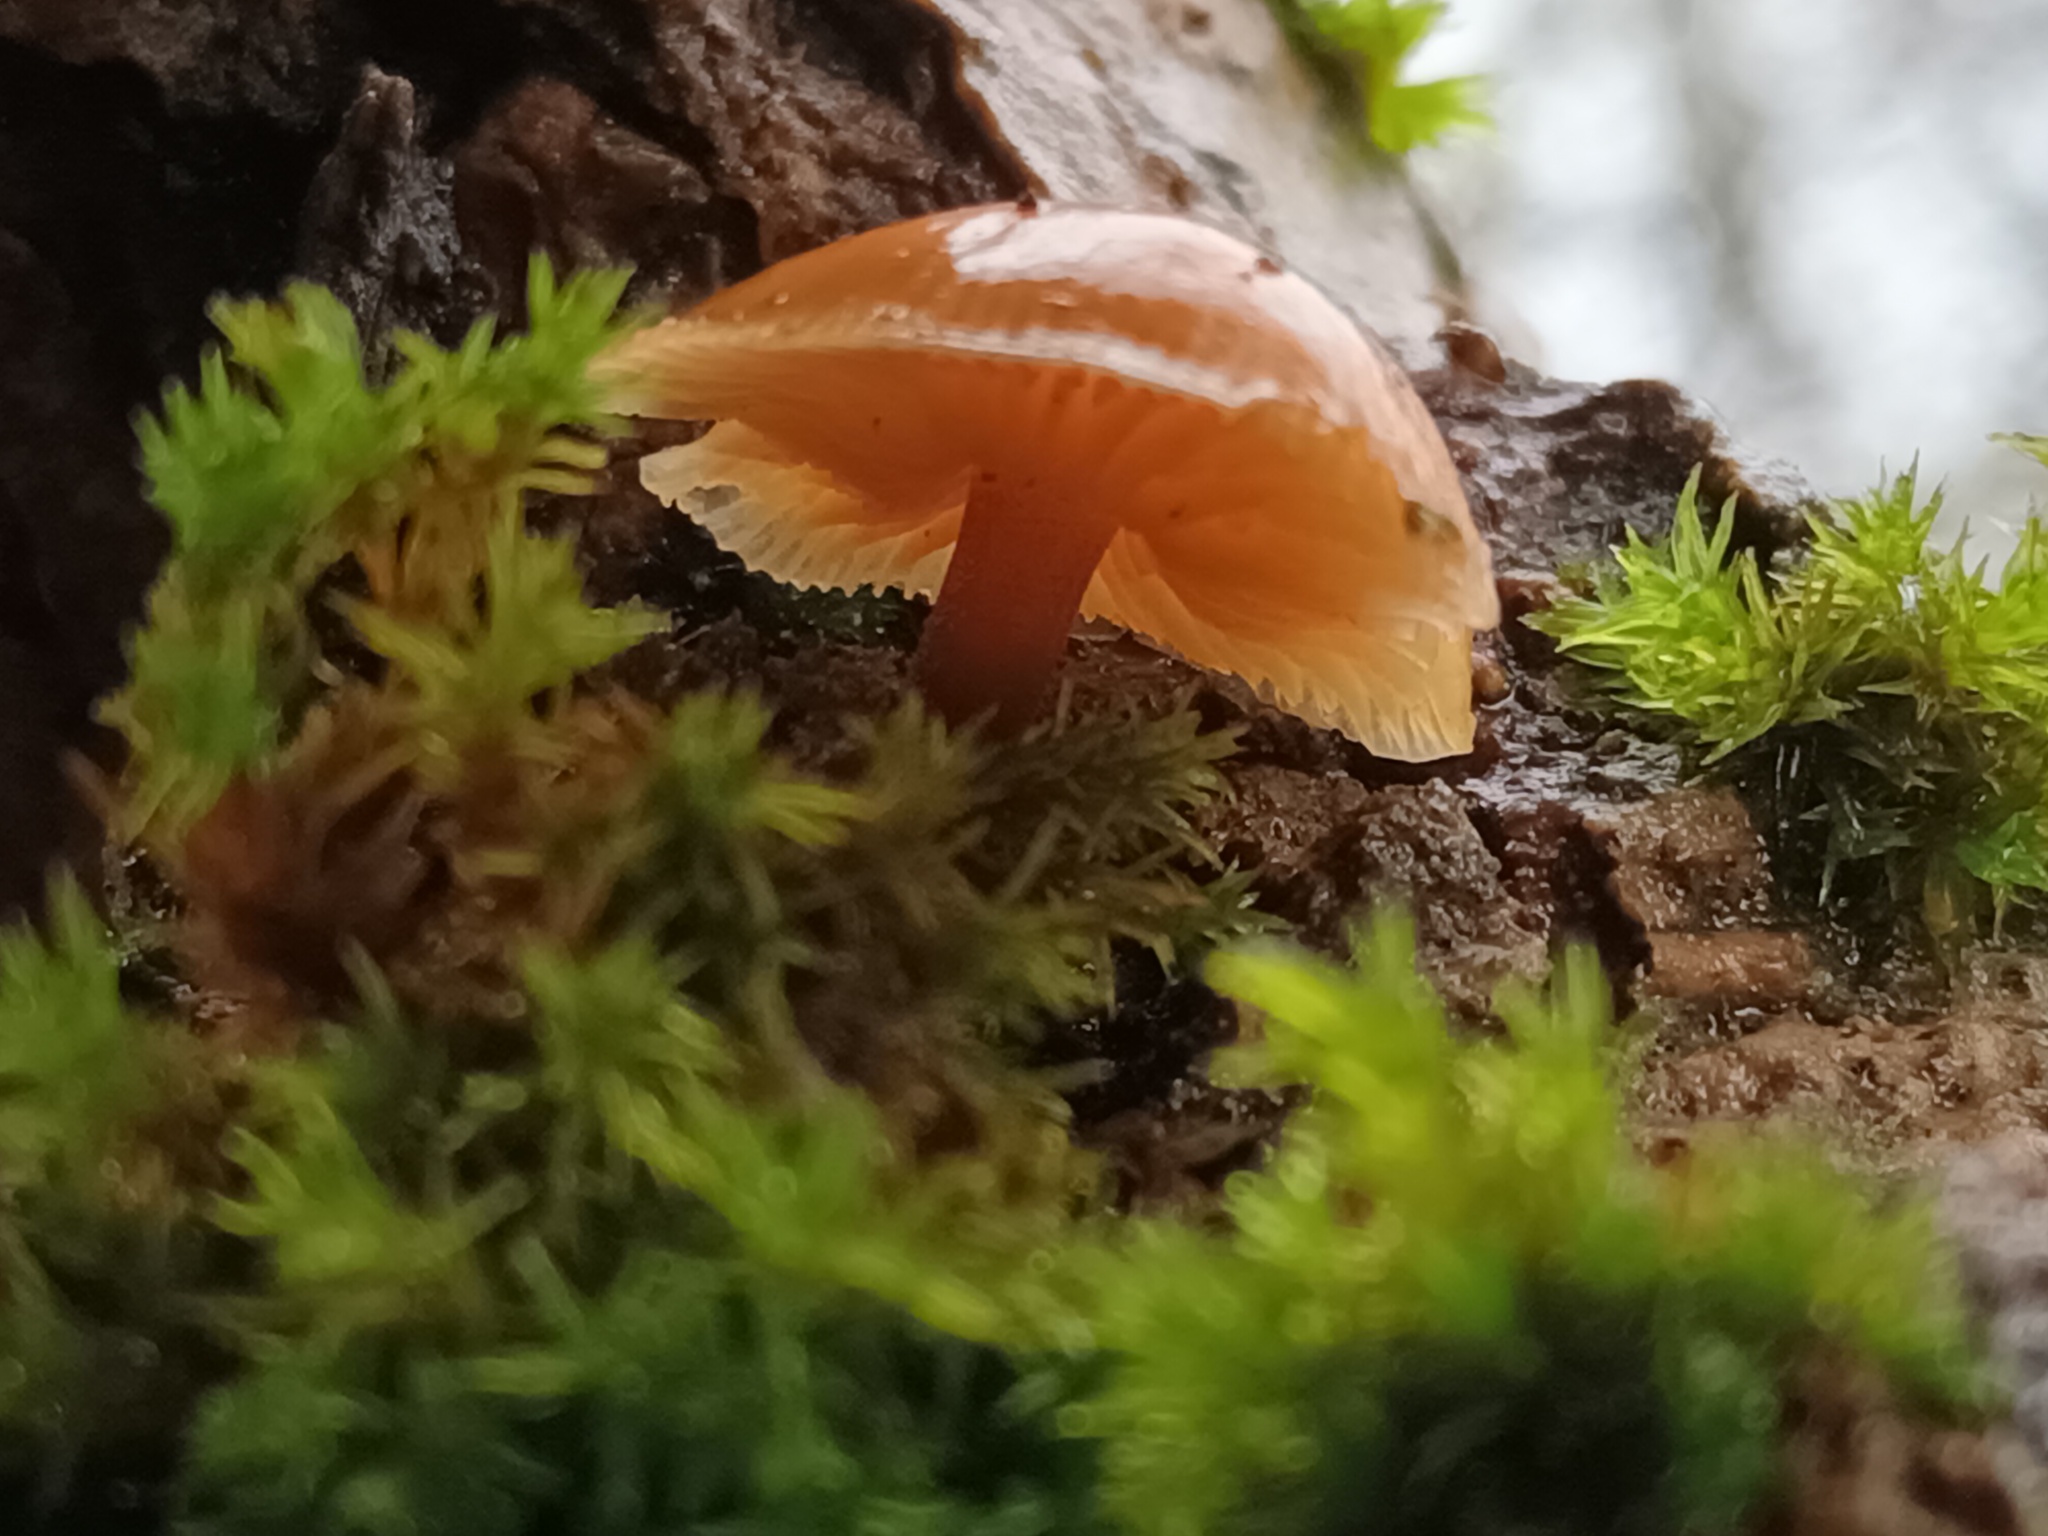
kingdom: Fungi
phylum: Basidiomycota
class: Agaricomycetes
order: Agaricales
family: Physalacriaceae
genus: Flammulina
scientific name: Flammulina
